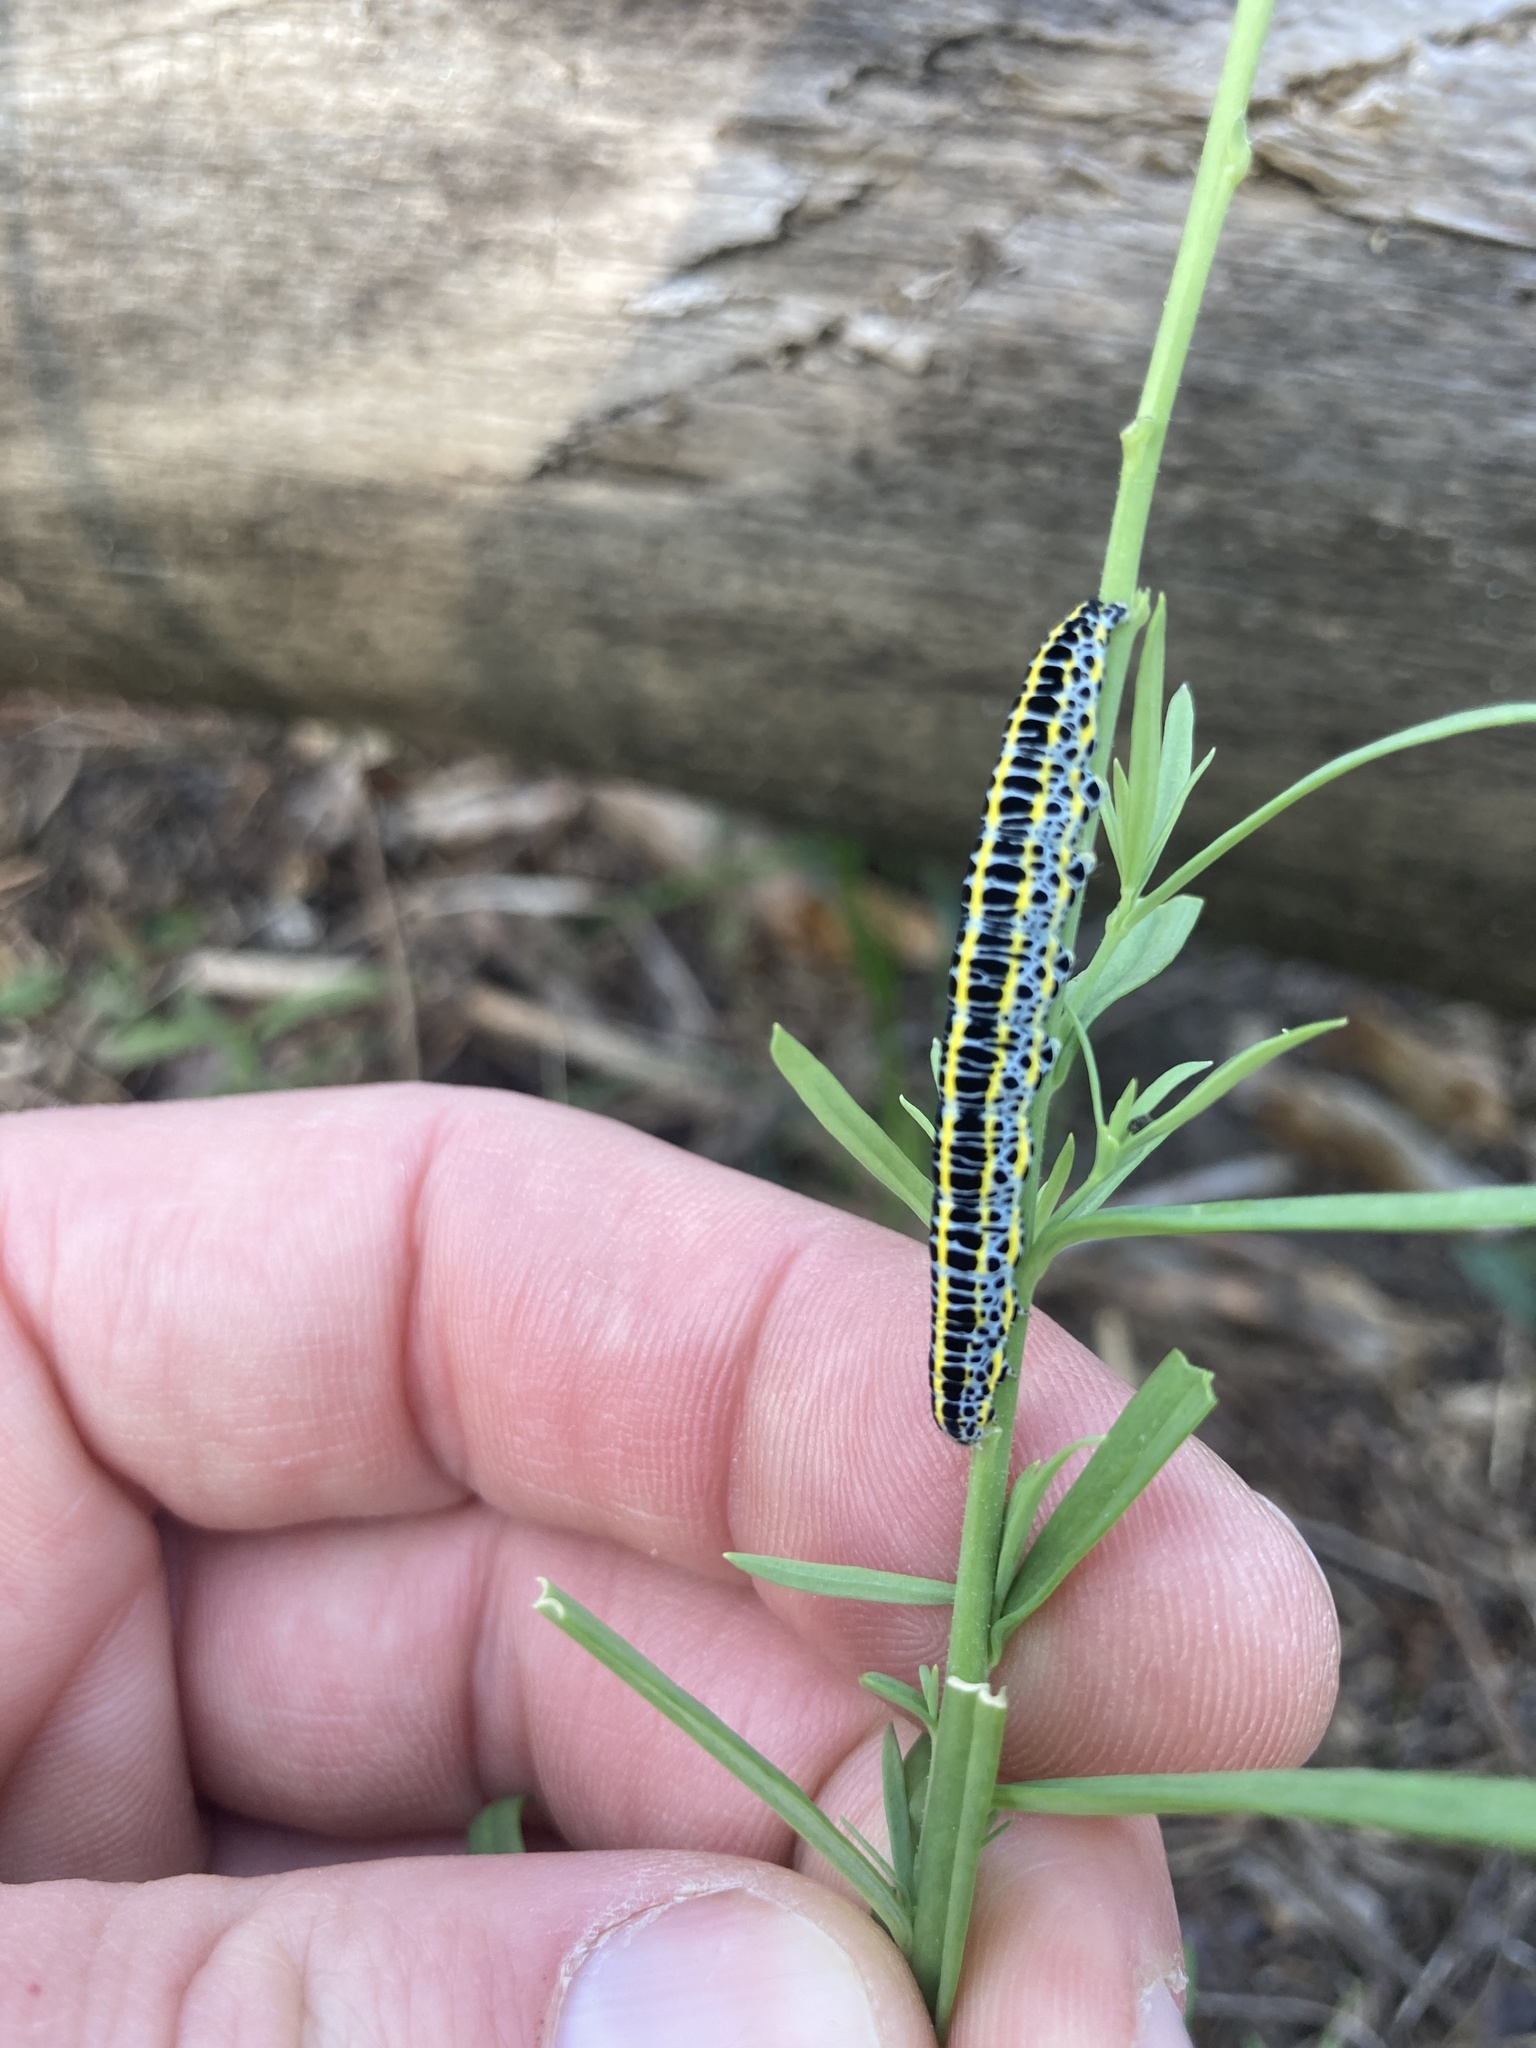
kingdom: Animalia
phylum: Arthropoda
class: Insecta
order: Lepidoptera
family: Noctuidae
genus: Calophasia
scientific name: Calophasia lunula
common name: Toadflax brocade
